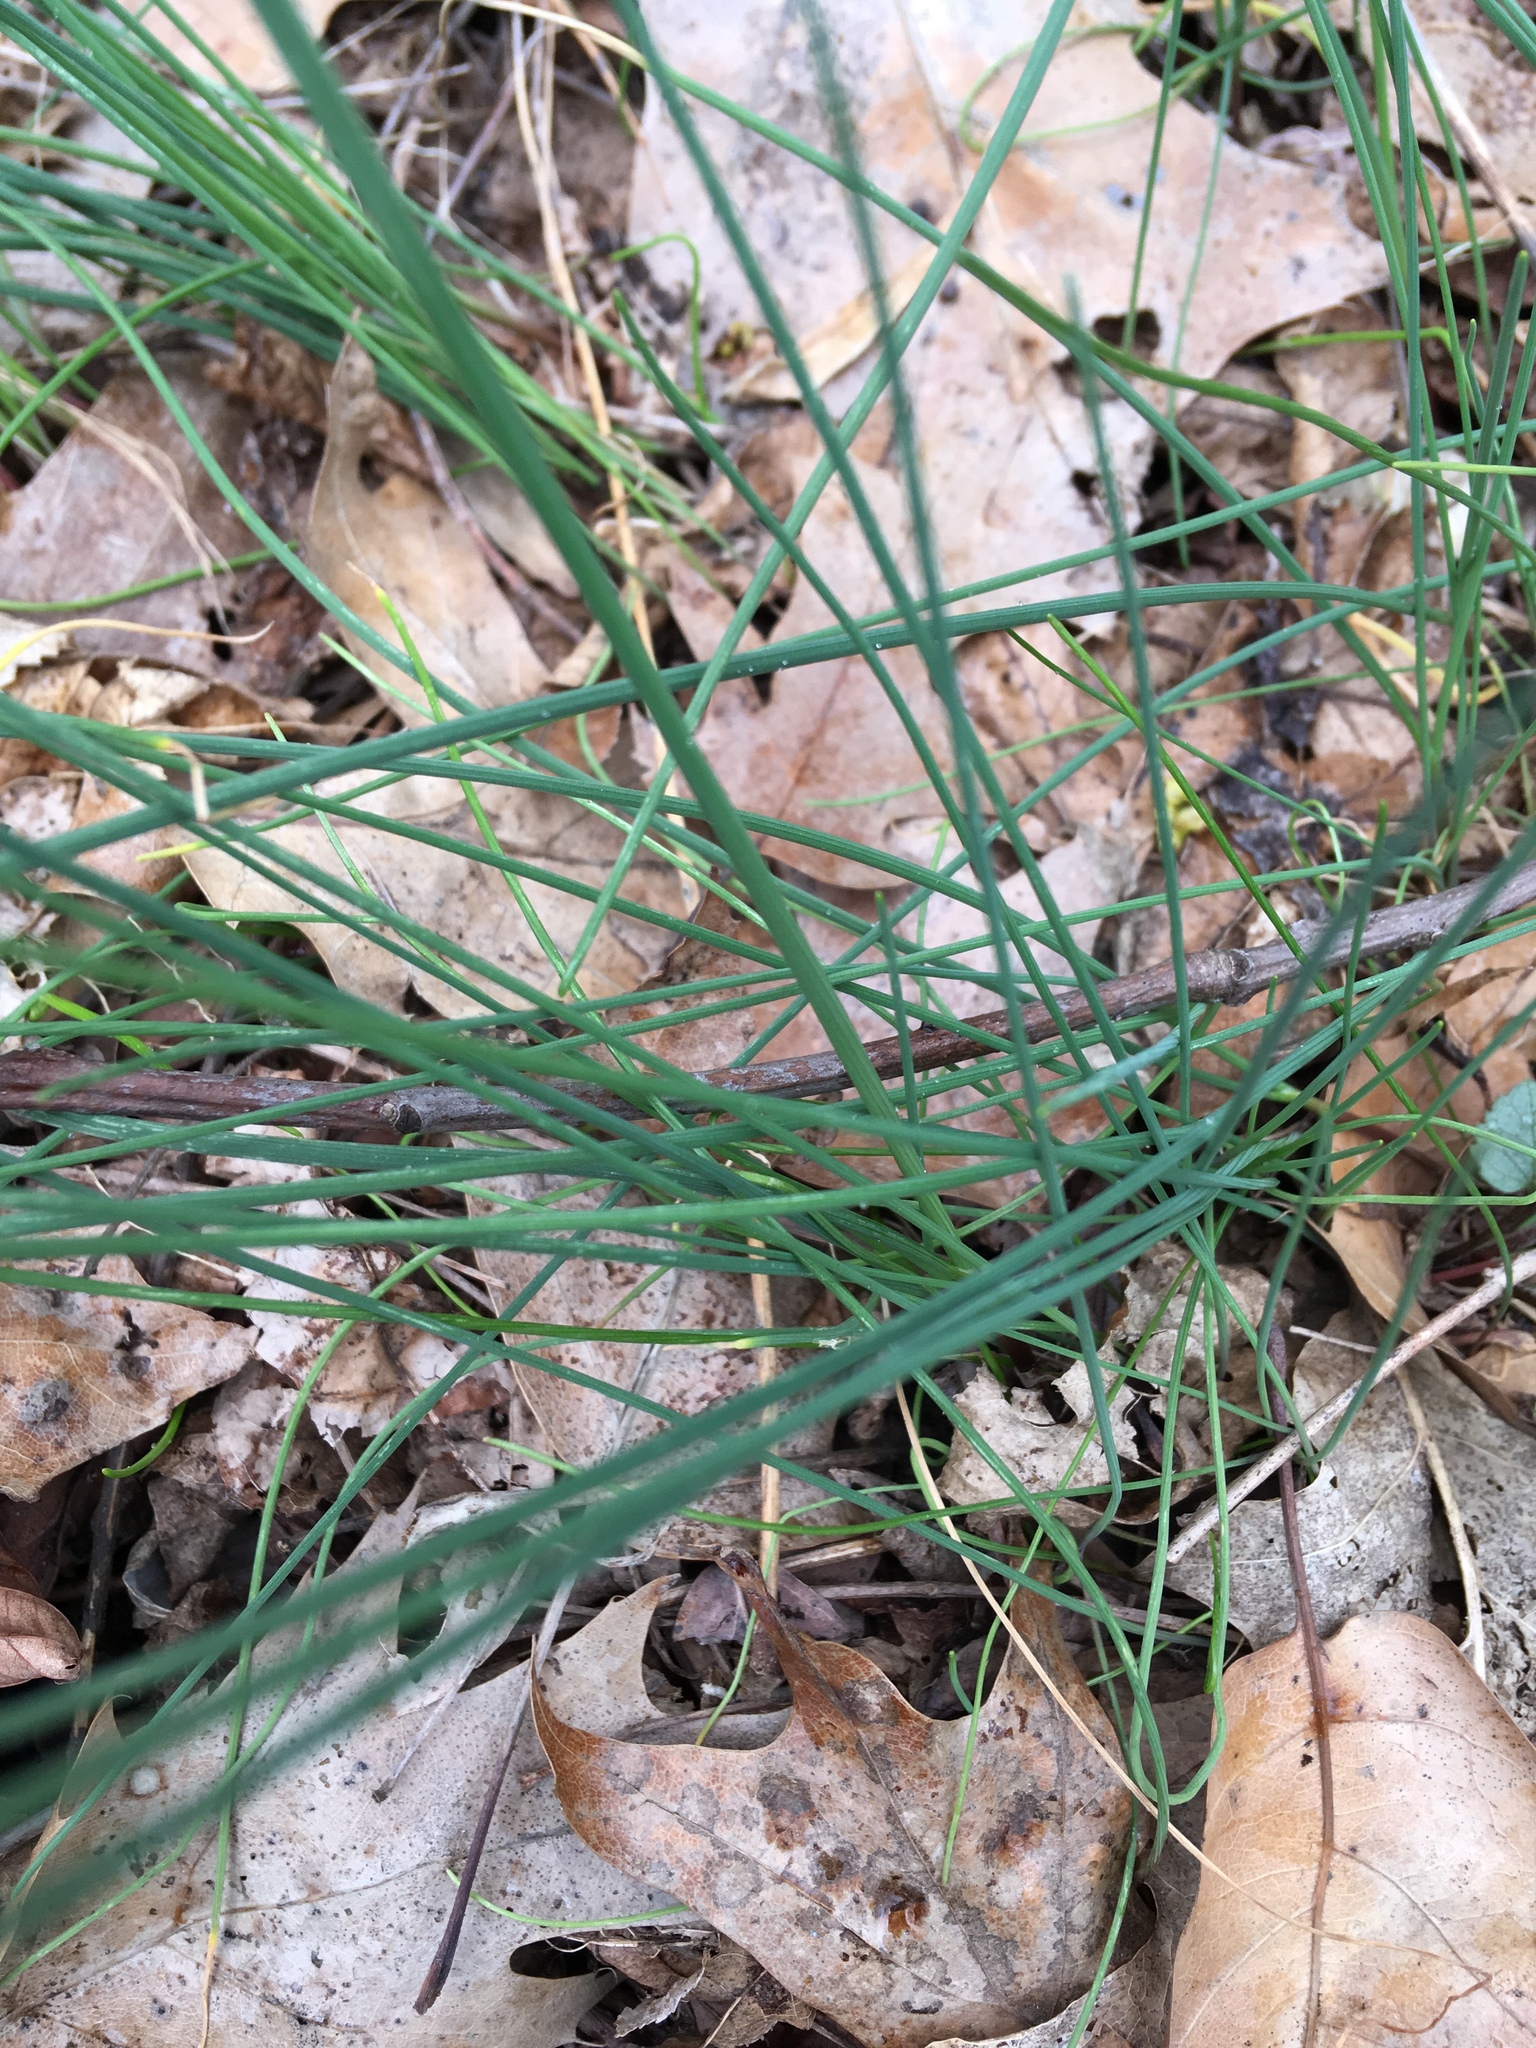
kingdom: Plantae
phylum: Tracheophyta
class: Liliopsida
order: Asparagales
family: Amaryllidaceae
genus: Allium
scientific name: Allium vineale
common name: Crow garlic
